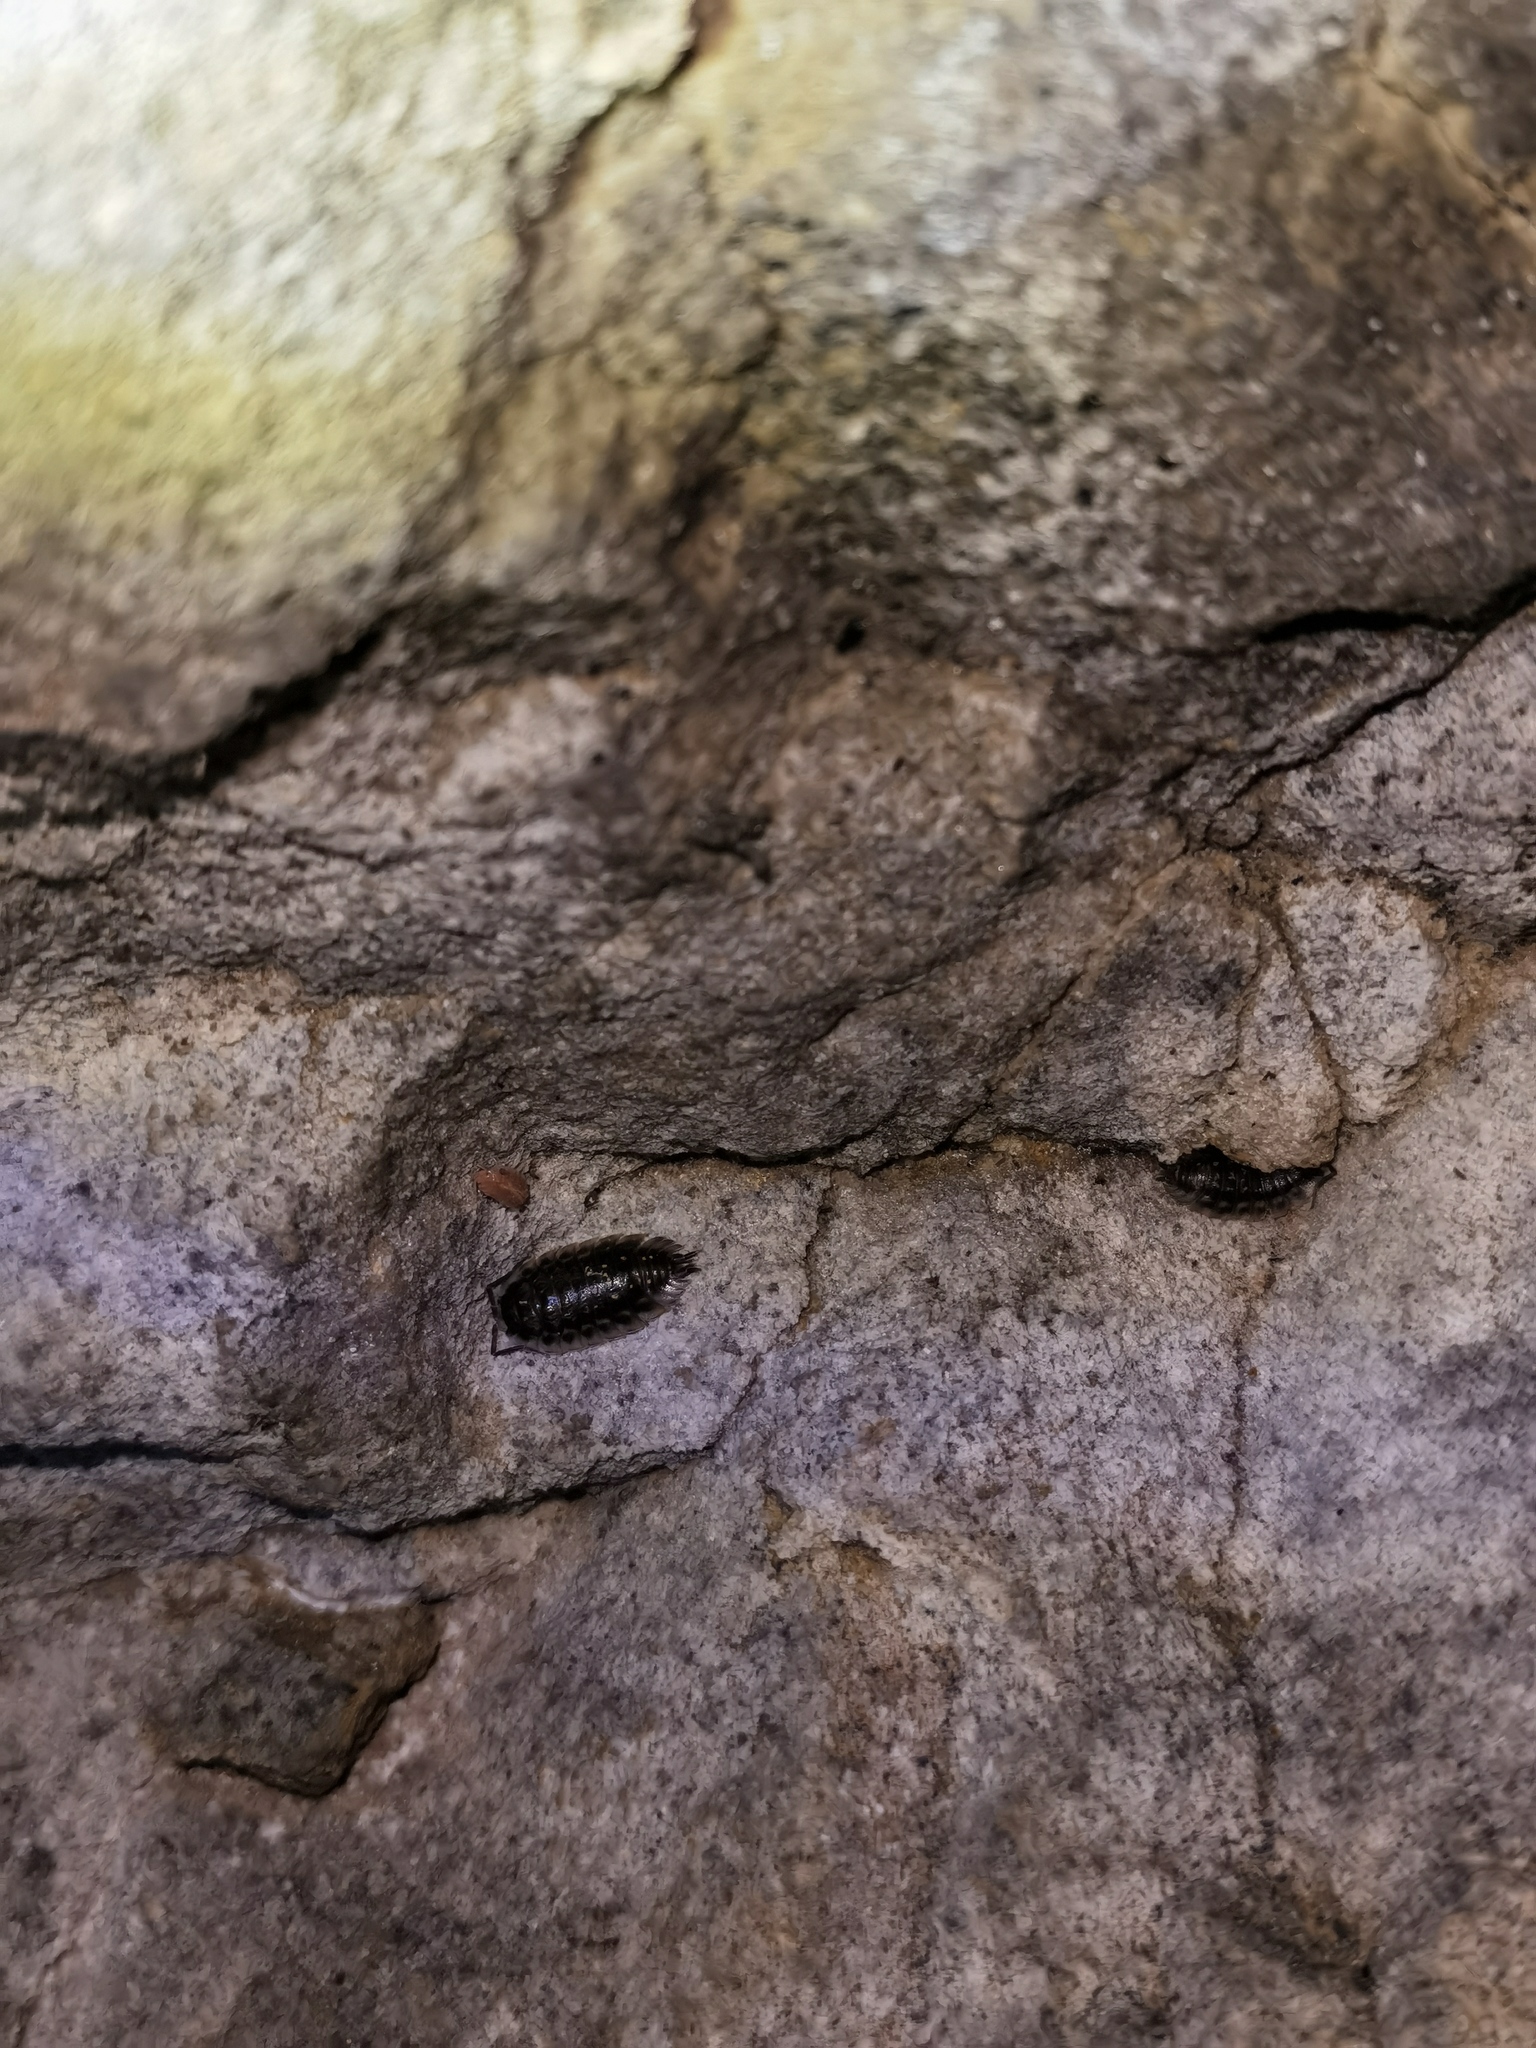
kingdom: Animalia
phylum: Arthropoda
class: Malacostraca
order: Isopoda
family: Oniscidae
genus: Oniscus
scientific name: Oniscus asellus
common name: Common shiny woodlouse
